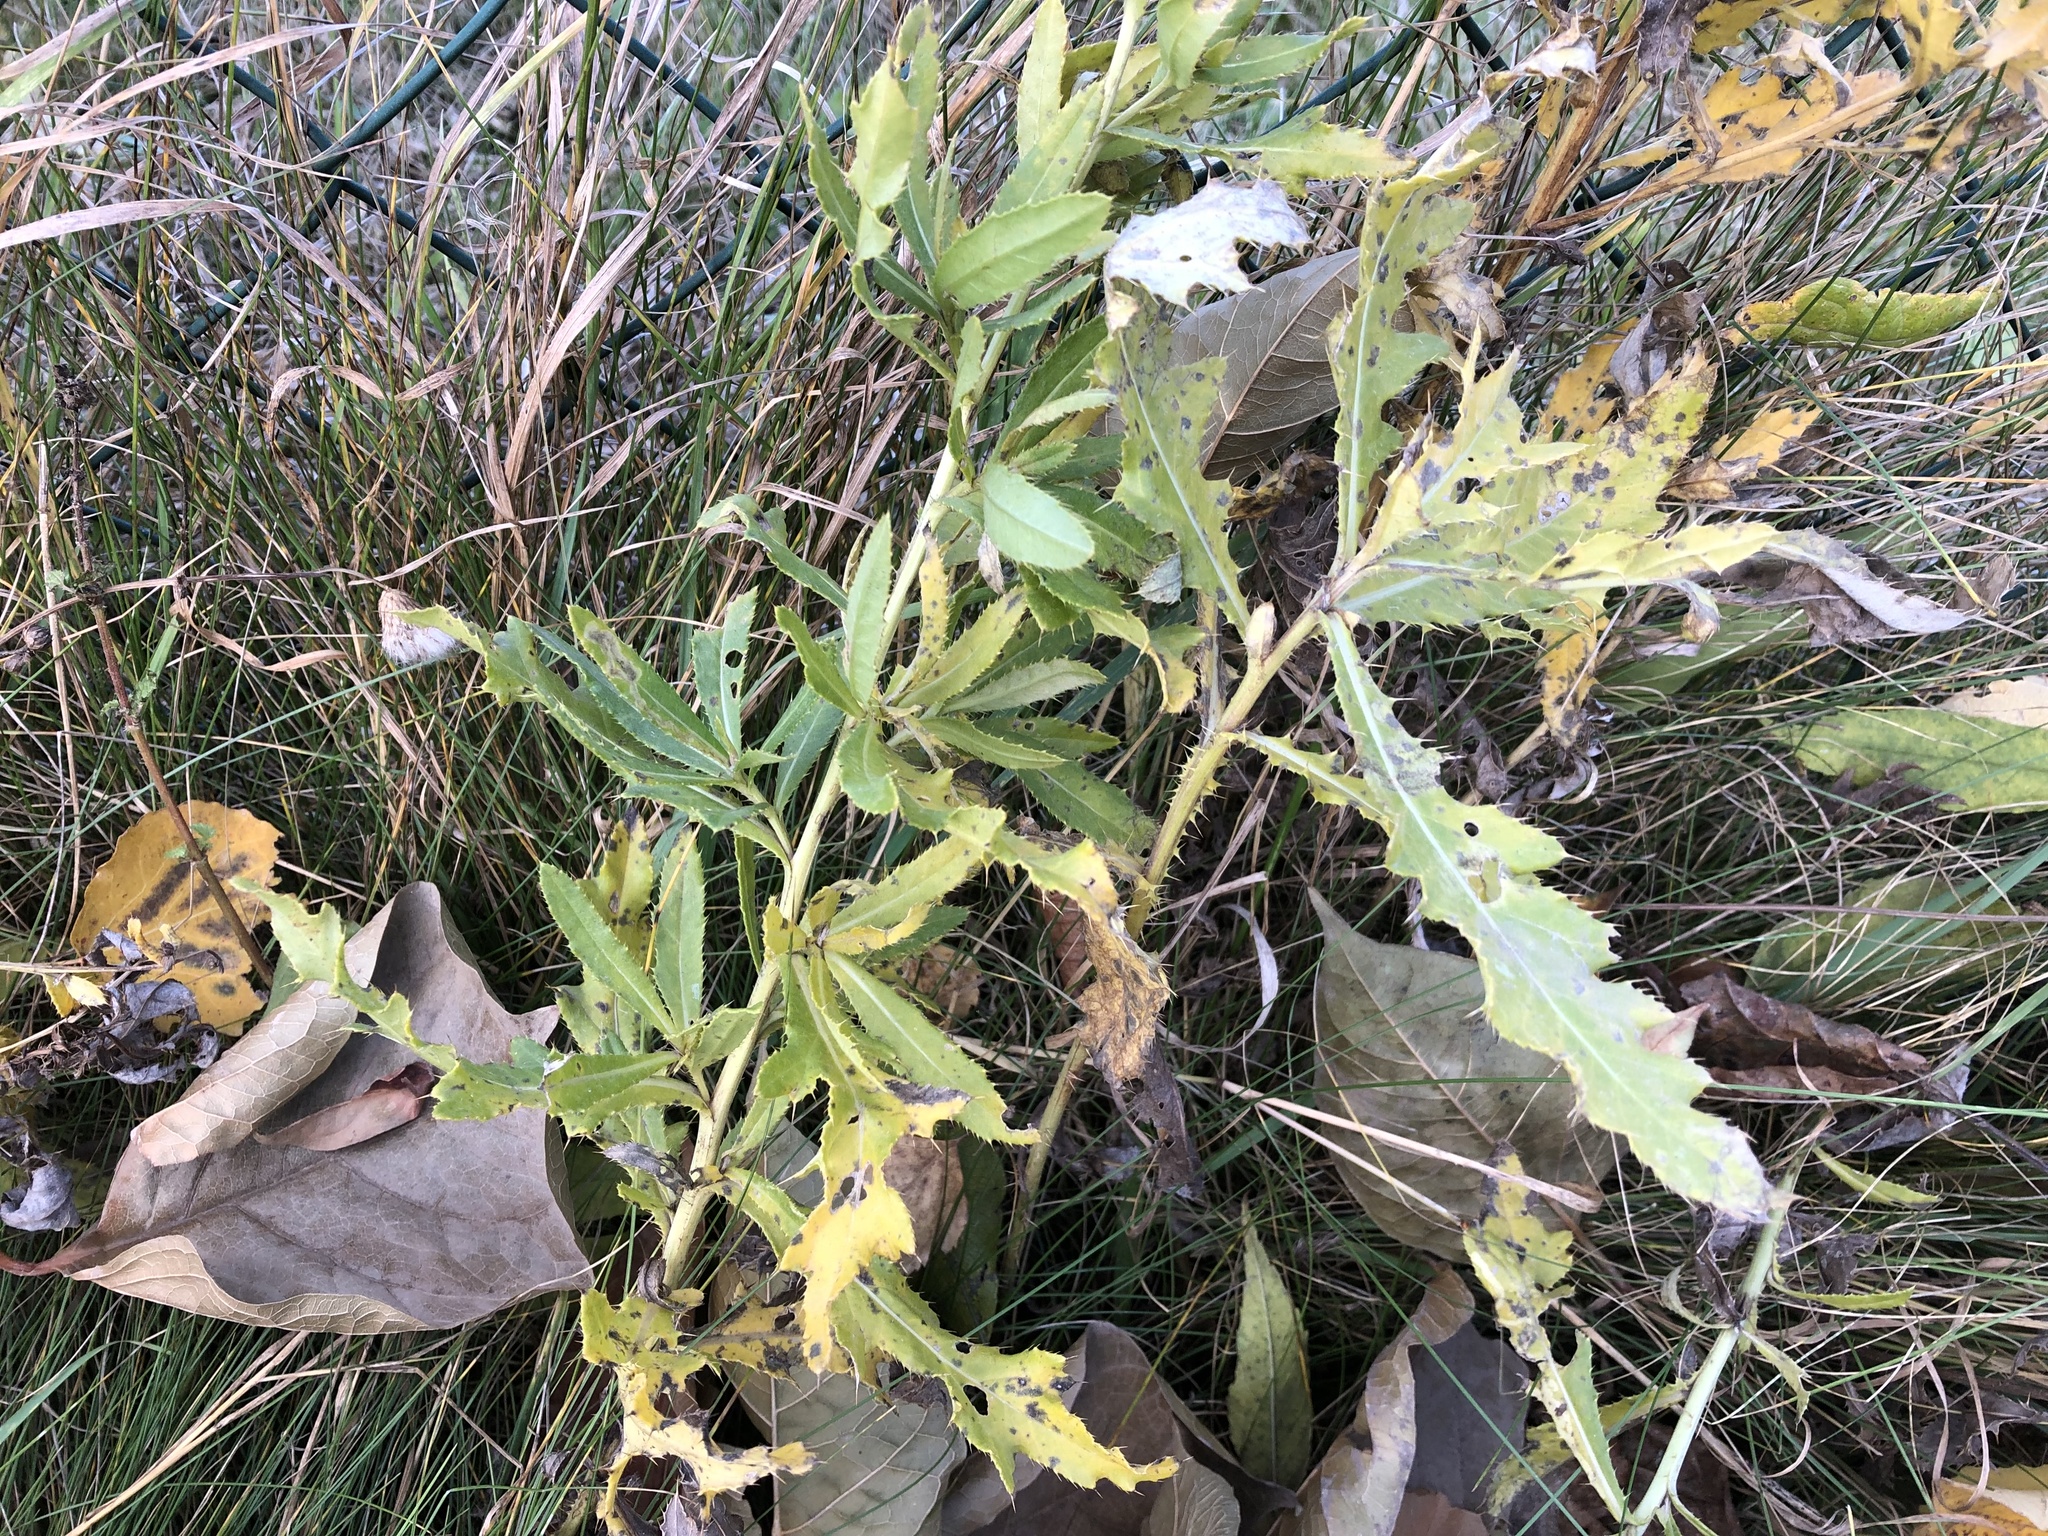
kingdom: Plantae
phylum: Tracheophyta
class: Magnoliopsida
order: Asterales
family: Asteraceae
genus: Cirsium
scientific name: Cirsium arvense
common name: Creeping thistle
